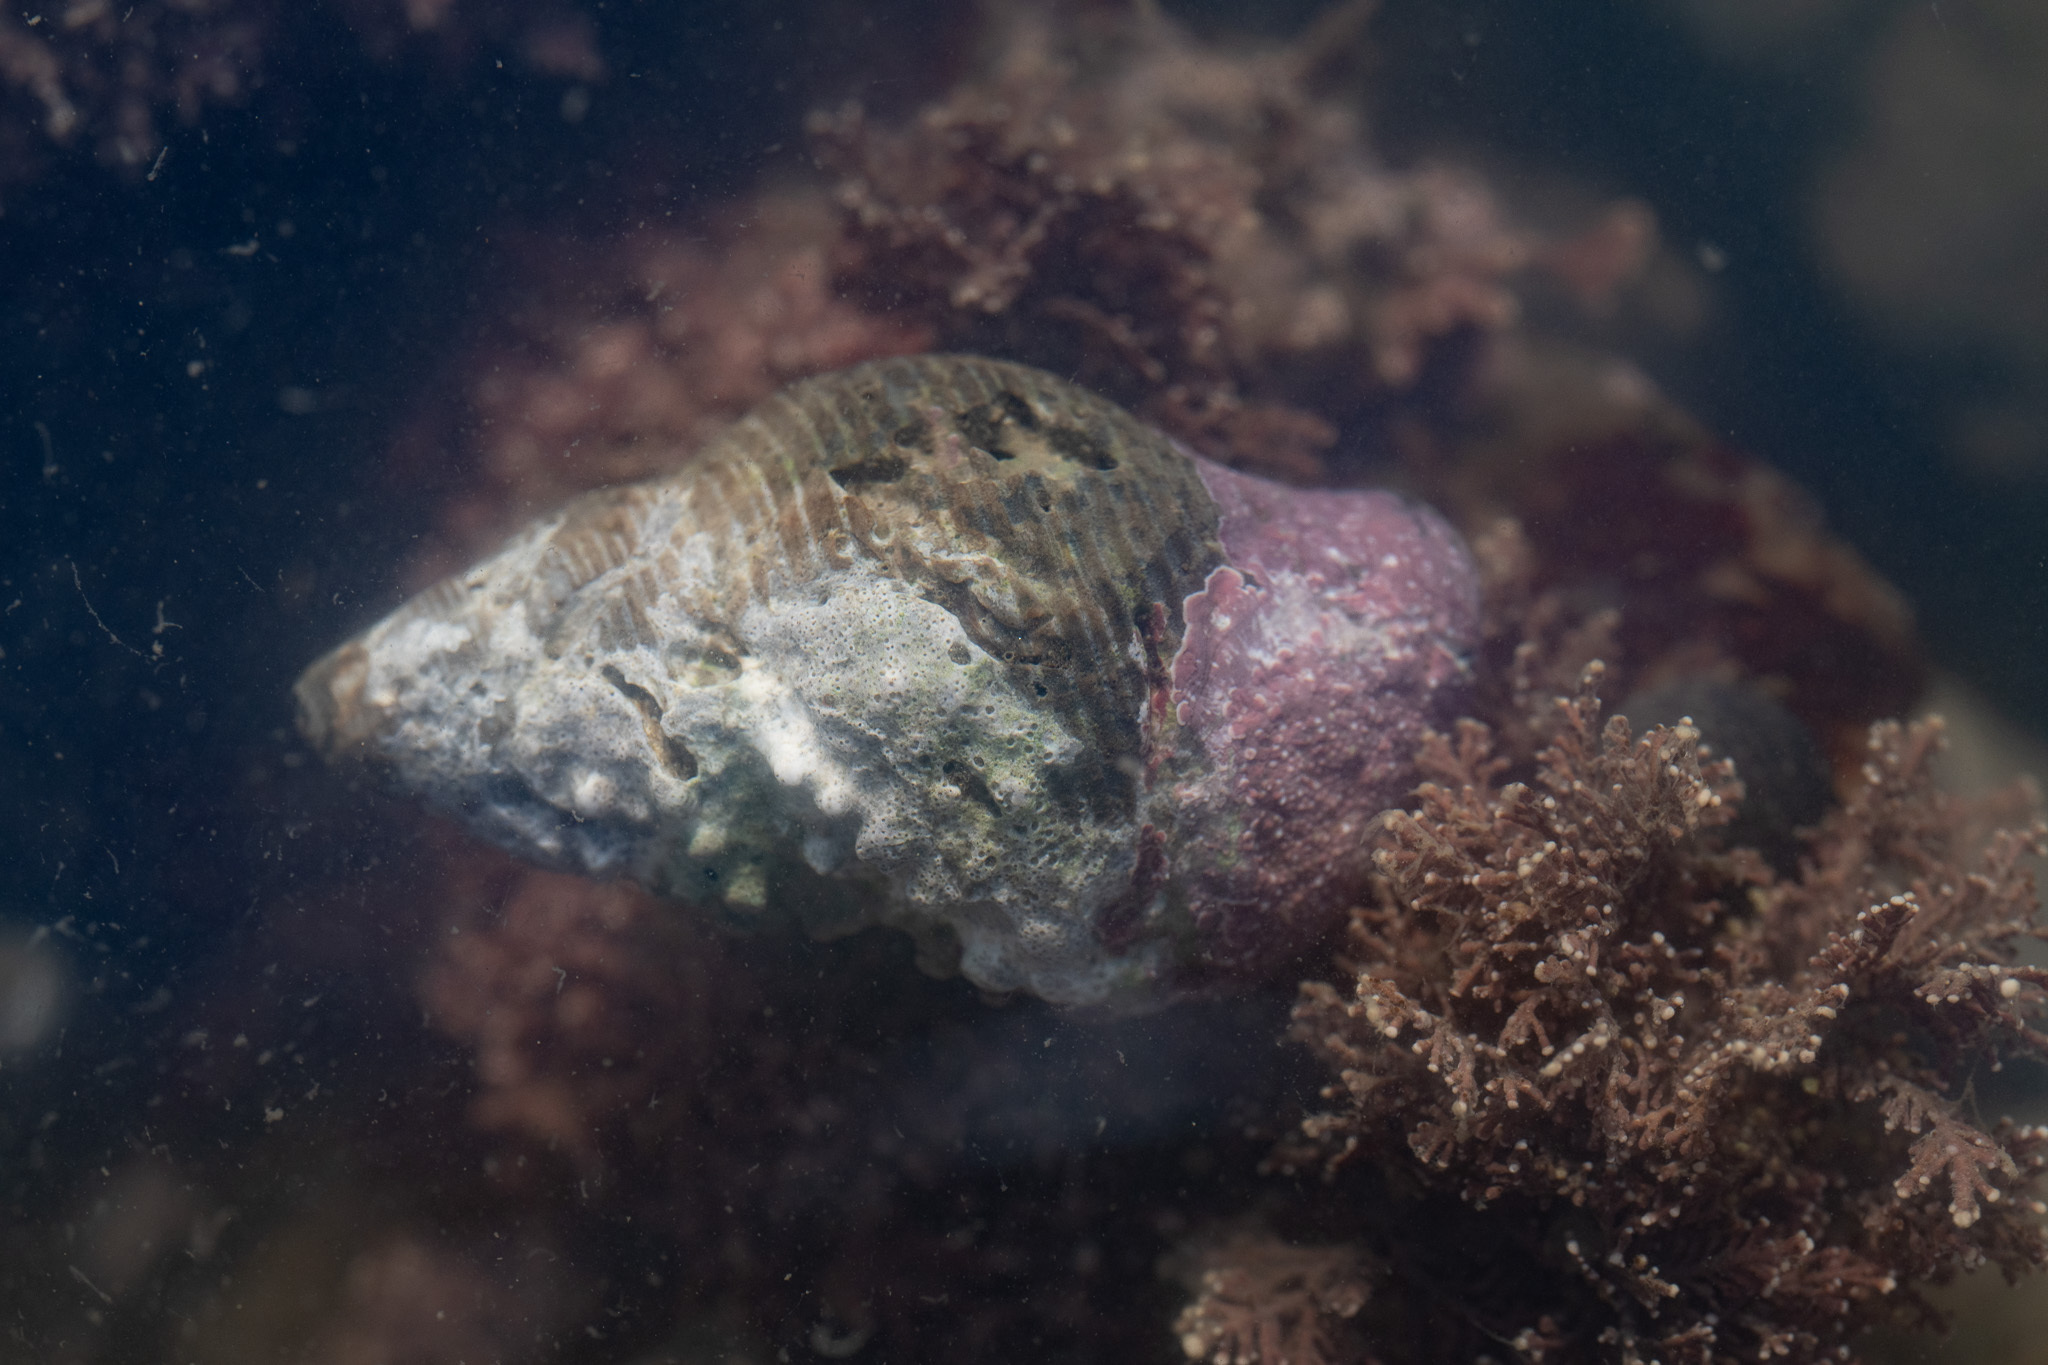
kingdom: Animalia
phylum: Mollusca
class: Gastropoda
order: Neogastropoda
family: Tudiclidae
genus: Lirabuccinum
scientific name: Lirabuccinum dirum
